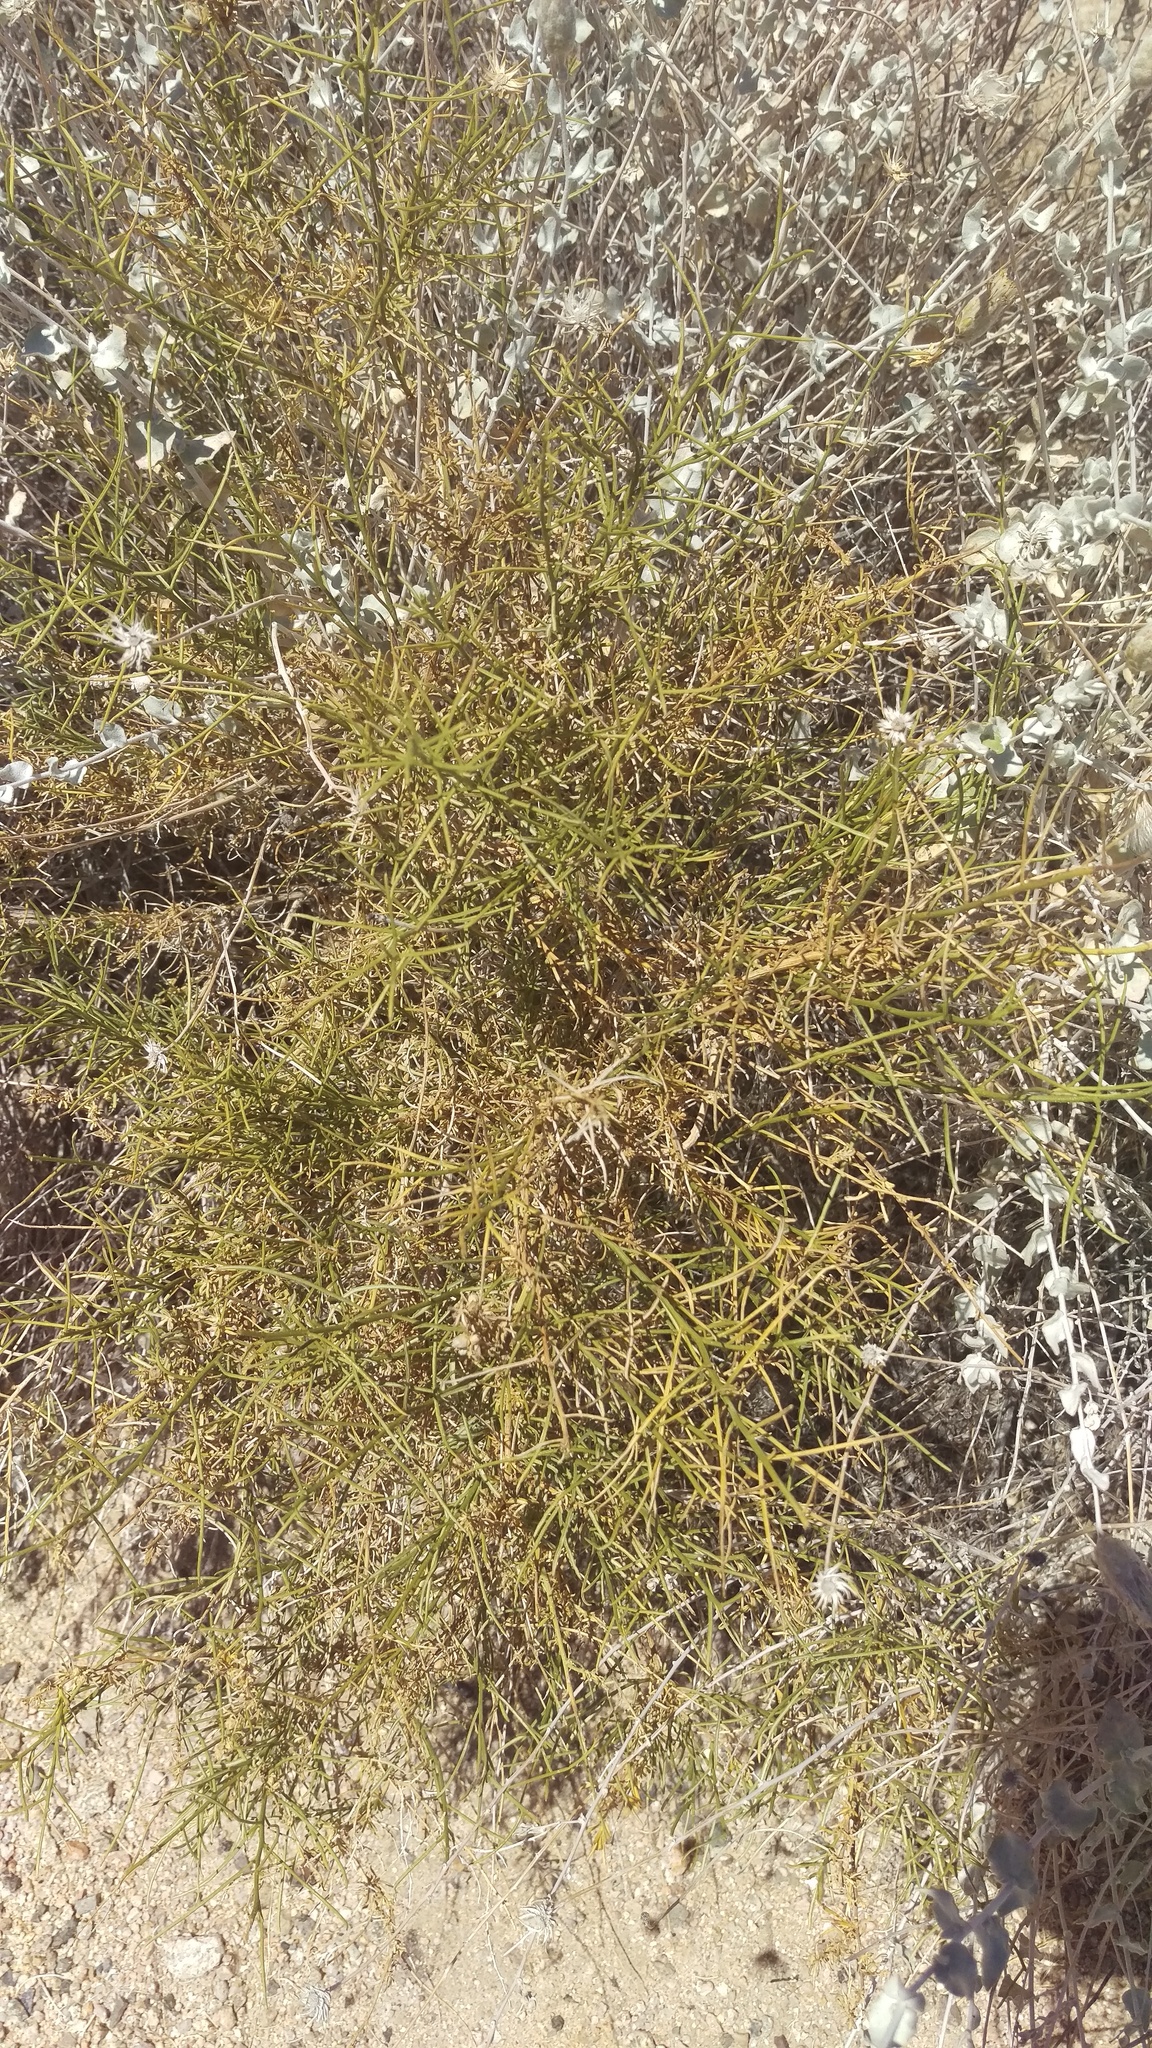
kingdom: Plantae
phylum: Tracheophyta
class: Magnoliopsida
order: Asterales
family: Asteraceae
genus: Ambrosia
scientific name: Ambrosia salsola
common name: Burrobrush
